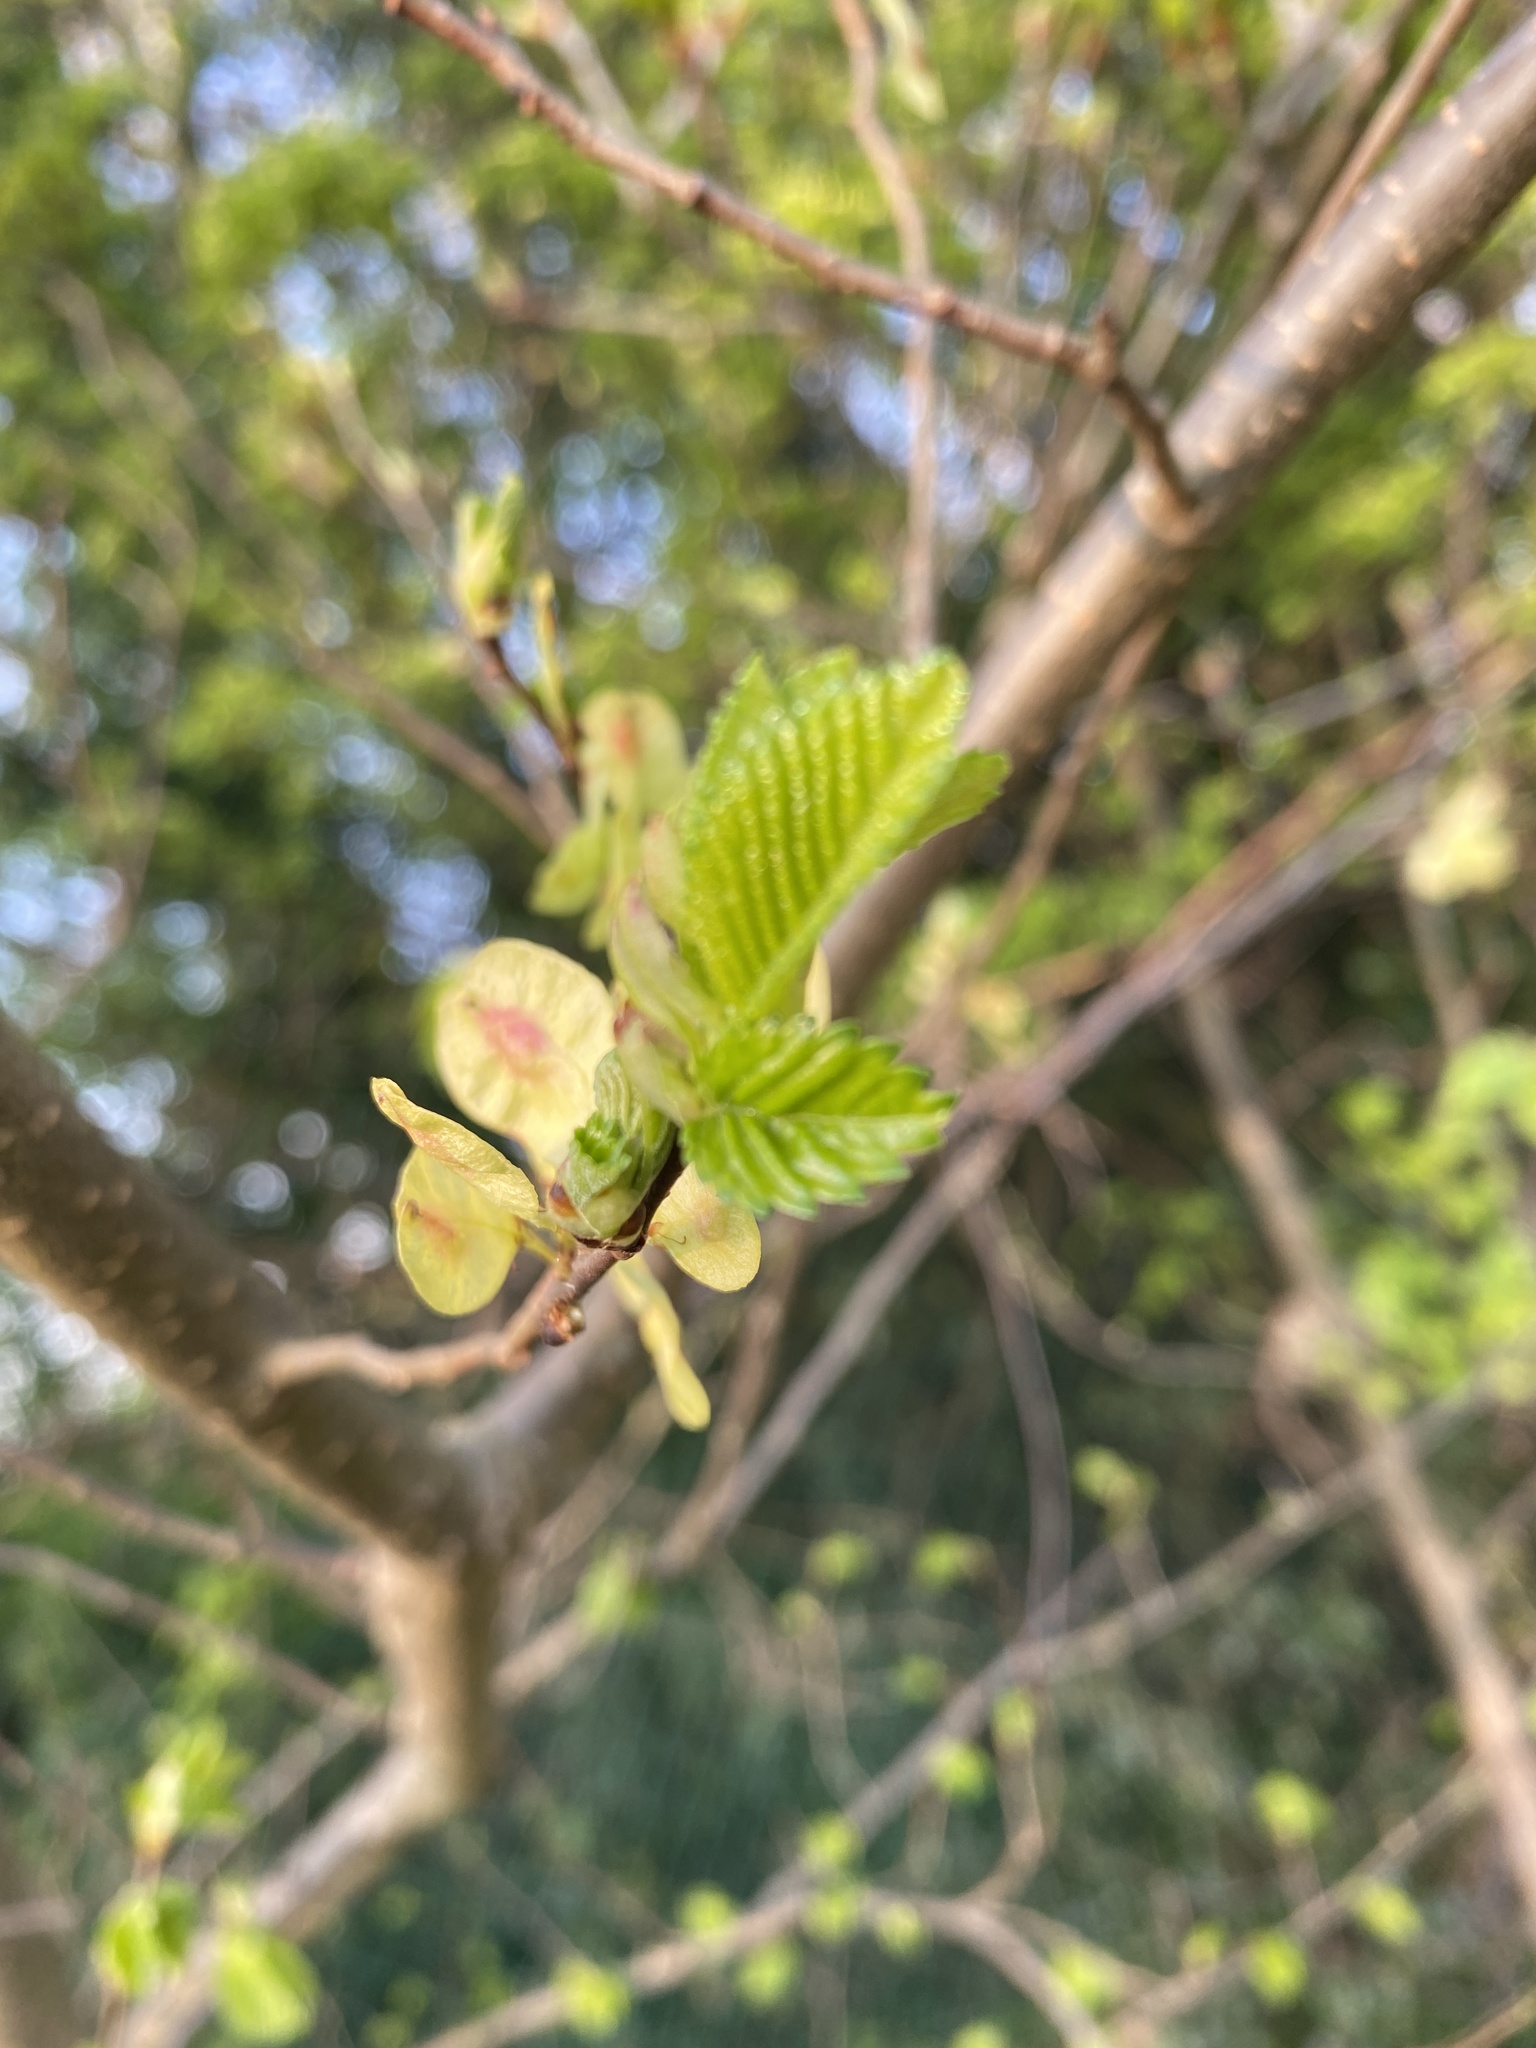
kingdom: Plantae
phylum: Tracheophyta
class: Magnoliopsida
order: Rosales
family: Ulmaceae
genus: Ulmus
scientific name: Ulmus glabra
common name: Wych elm
